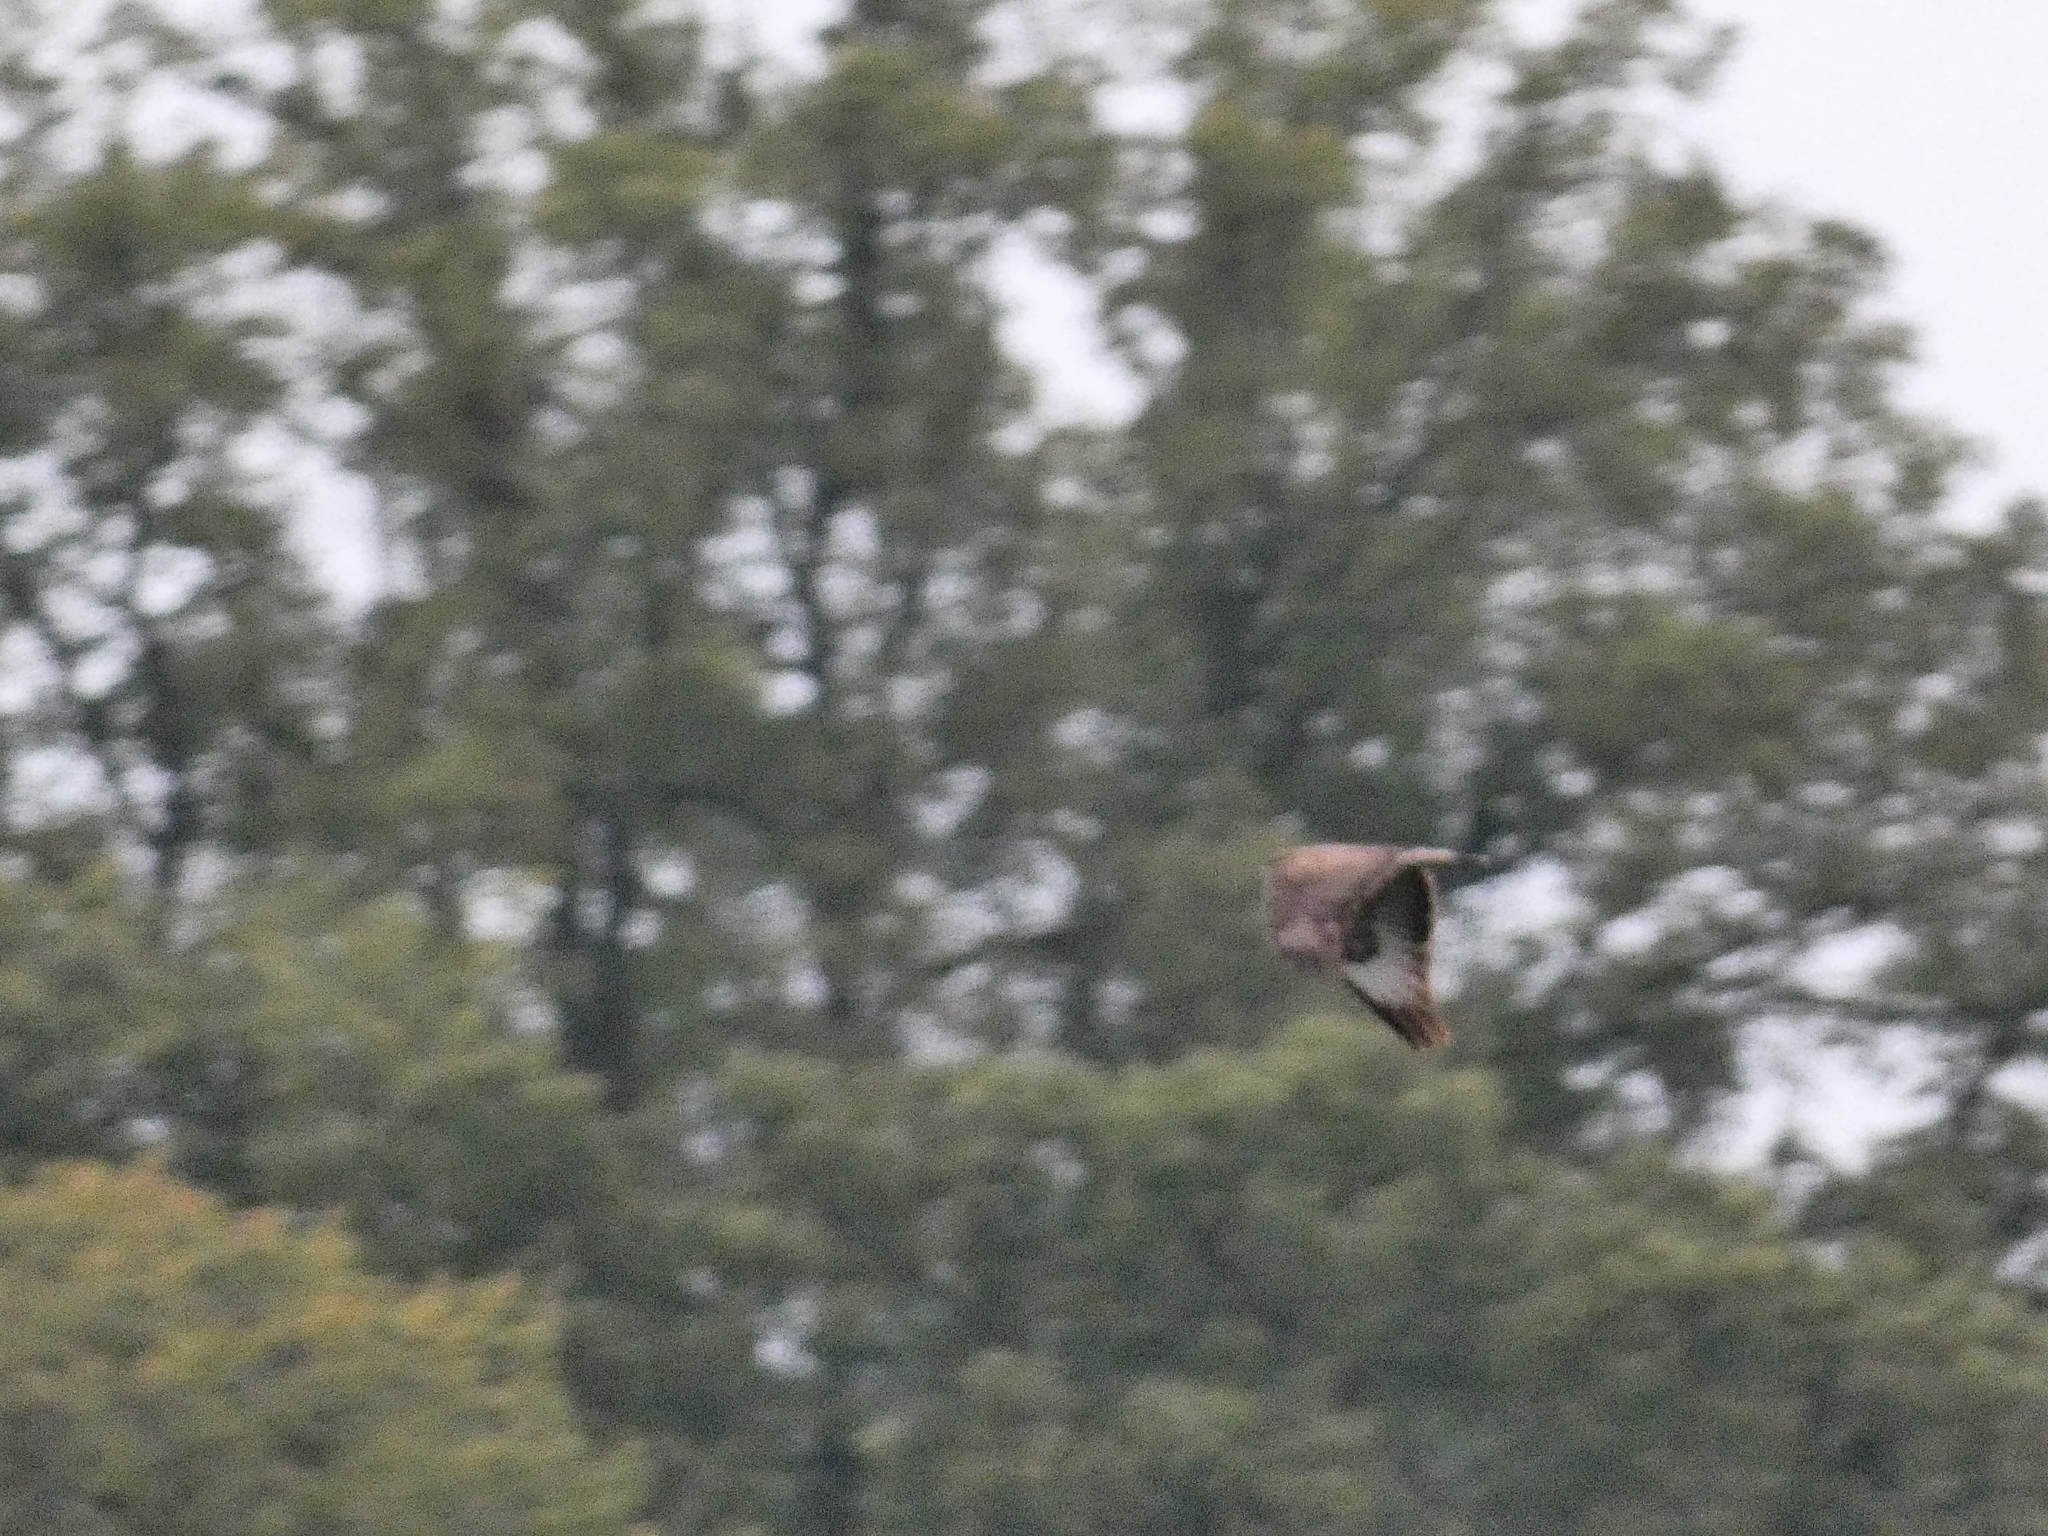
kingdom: Animalia
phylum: Chordata
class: Aves
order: Accipitriformes
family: Accipitridae
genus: Buteo
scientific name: Buteo buteo
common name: Common buzzard
